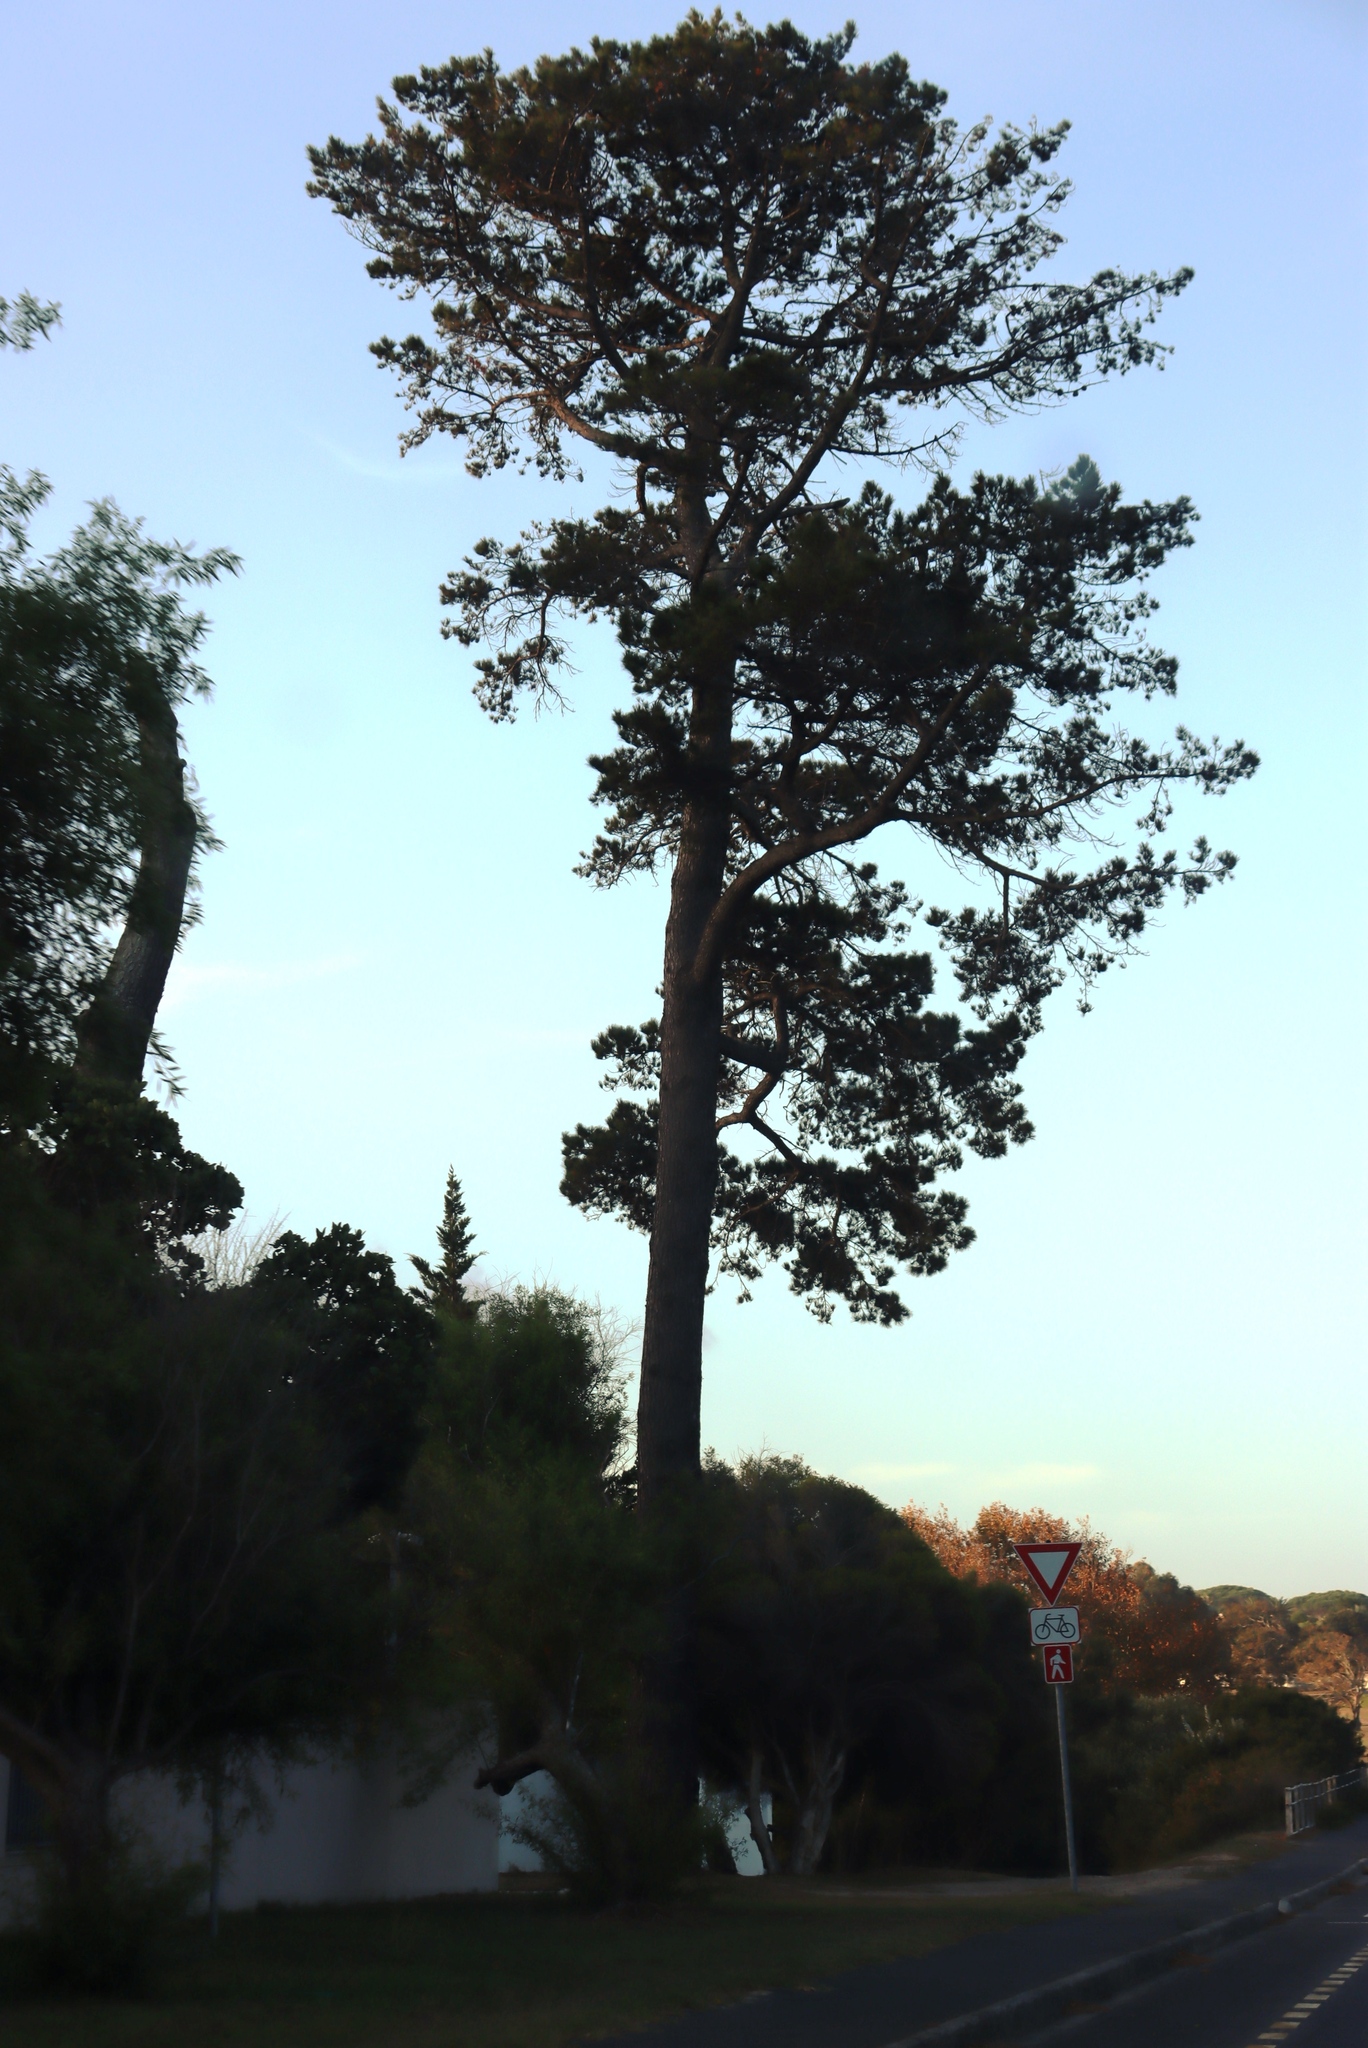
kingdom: Plantae
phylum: Tracheophyta
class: Pinopsida
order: Pinales
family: Pinaceae
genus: Pinus
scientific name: Pinus radiata
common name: Monterey pine
